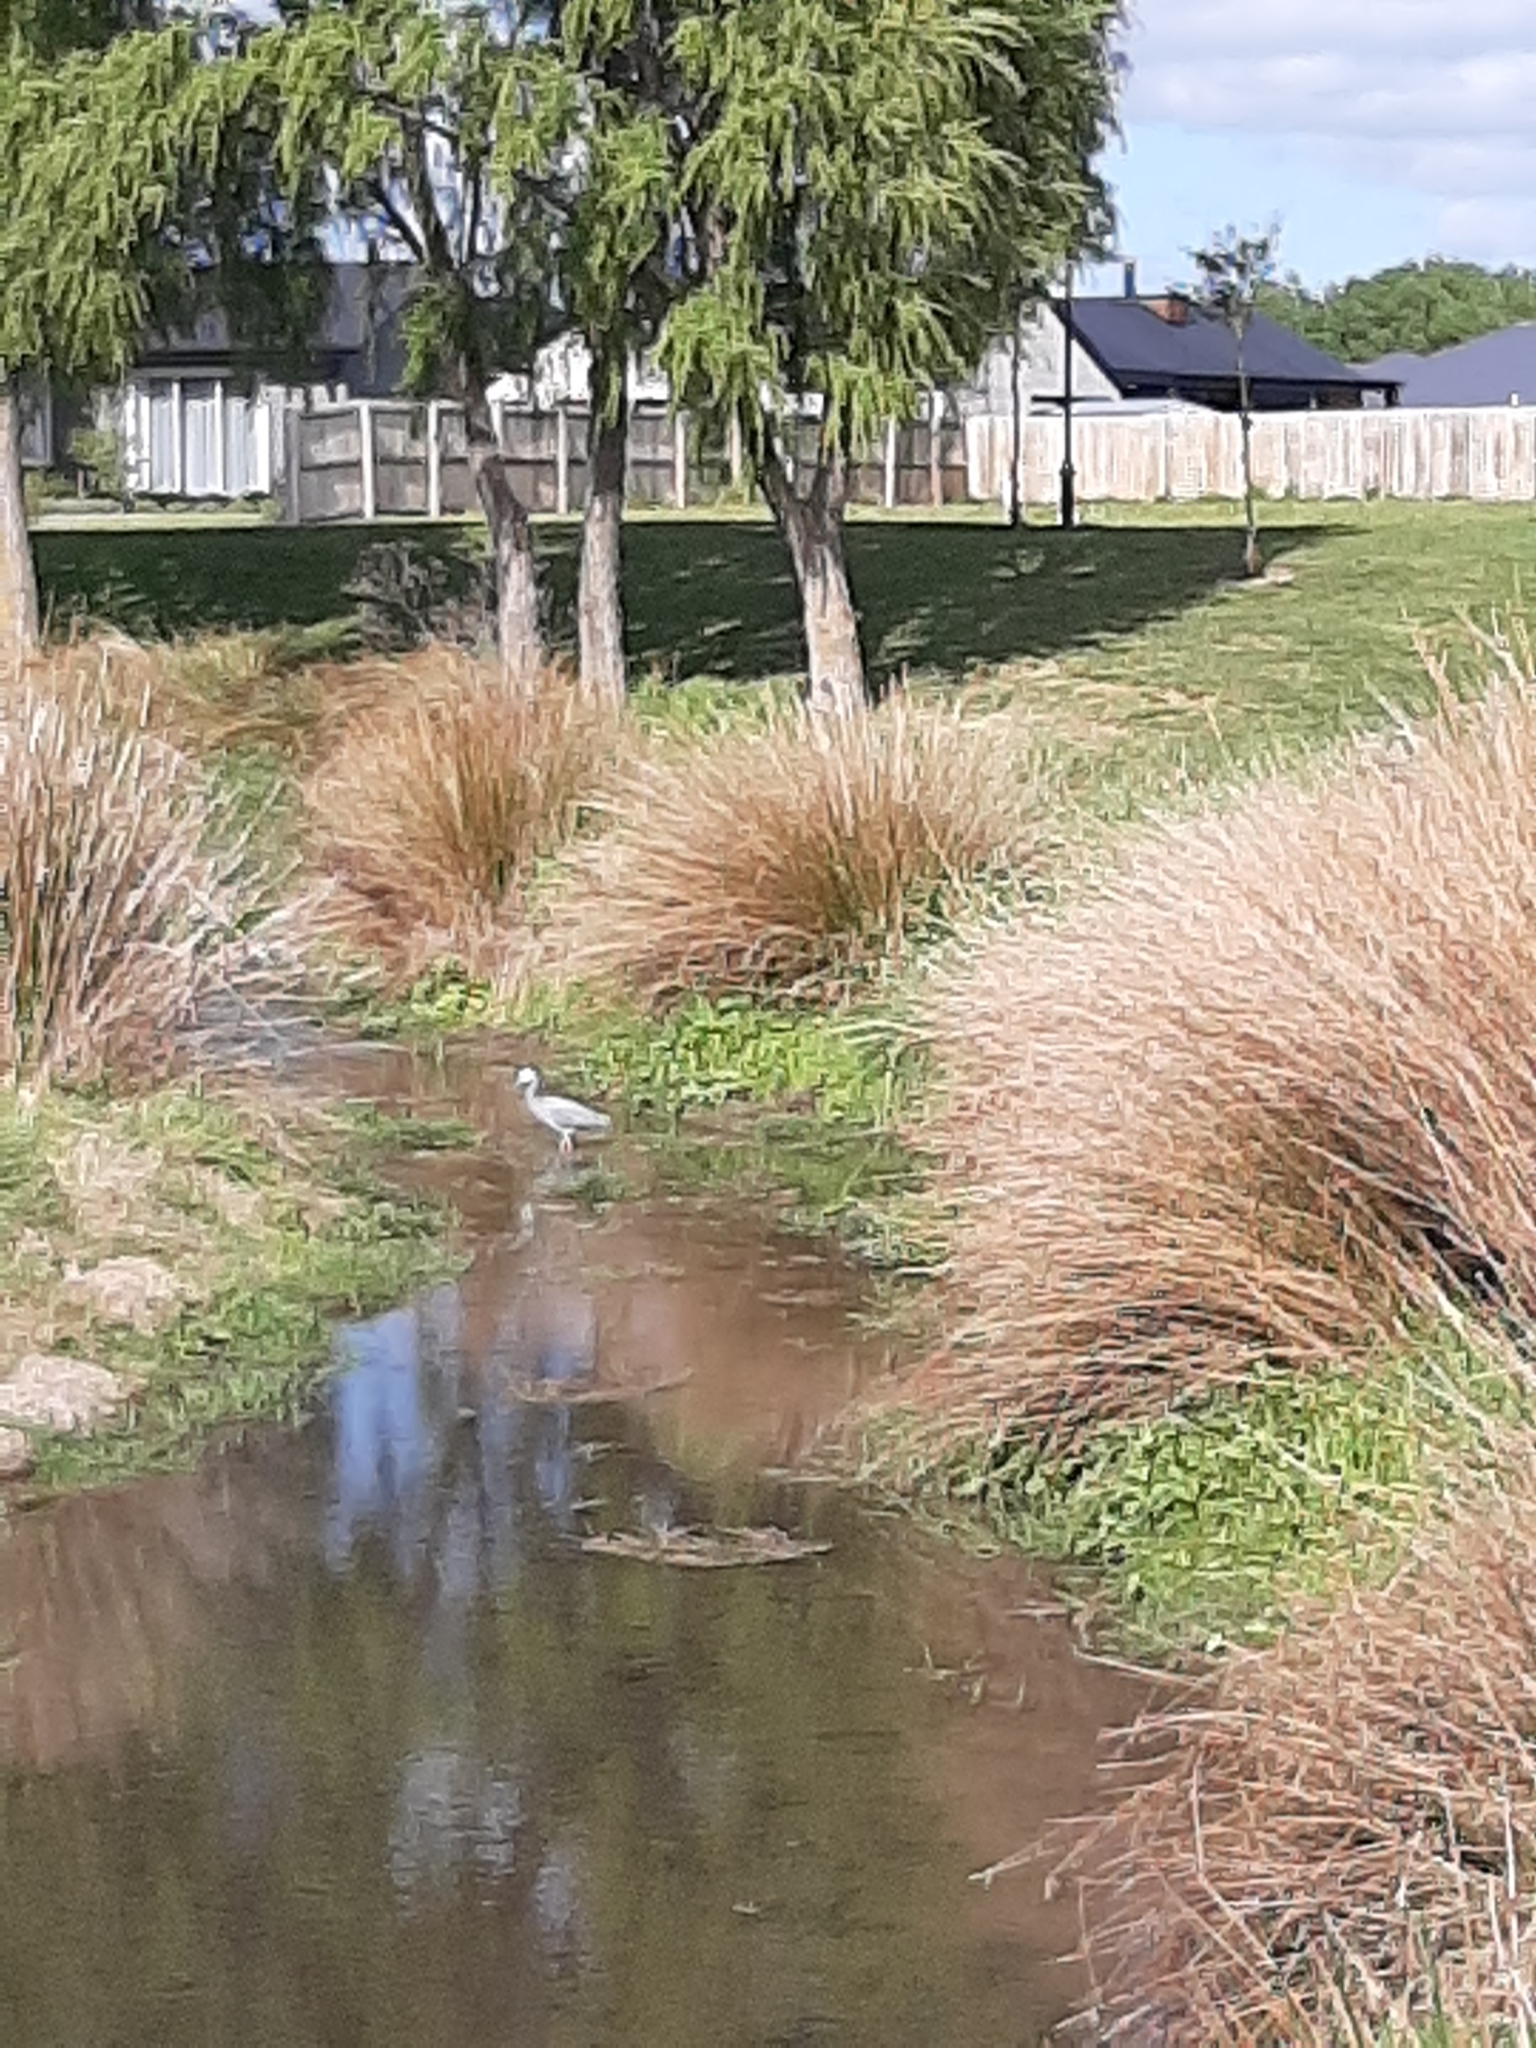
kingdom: Animalia
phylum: Chordata
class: Aves
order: Pelecaniformes
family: Ardeidae
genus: Egretta
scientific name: Egretta novaehollandiae
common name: White-faced heron
